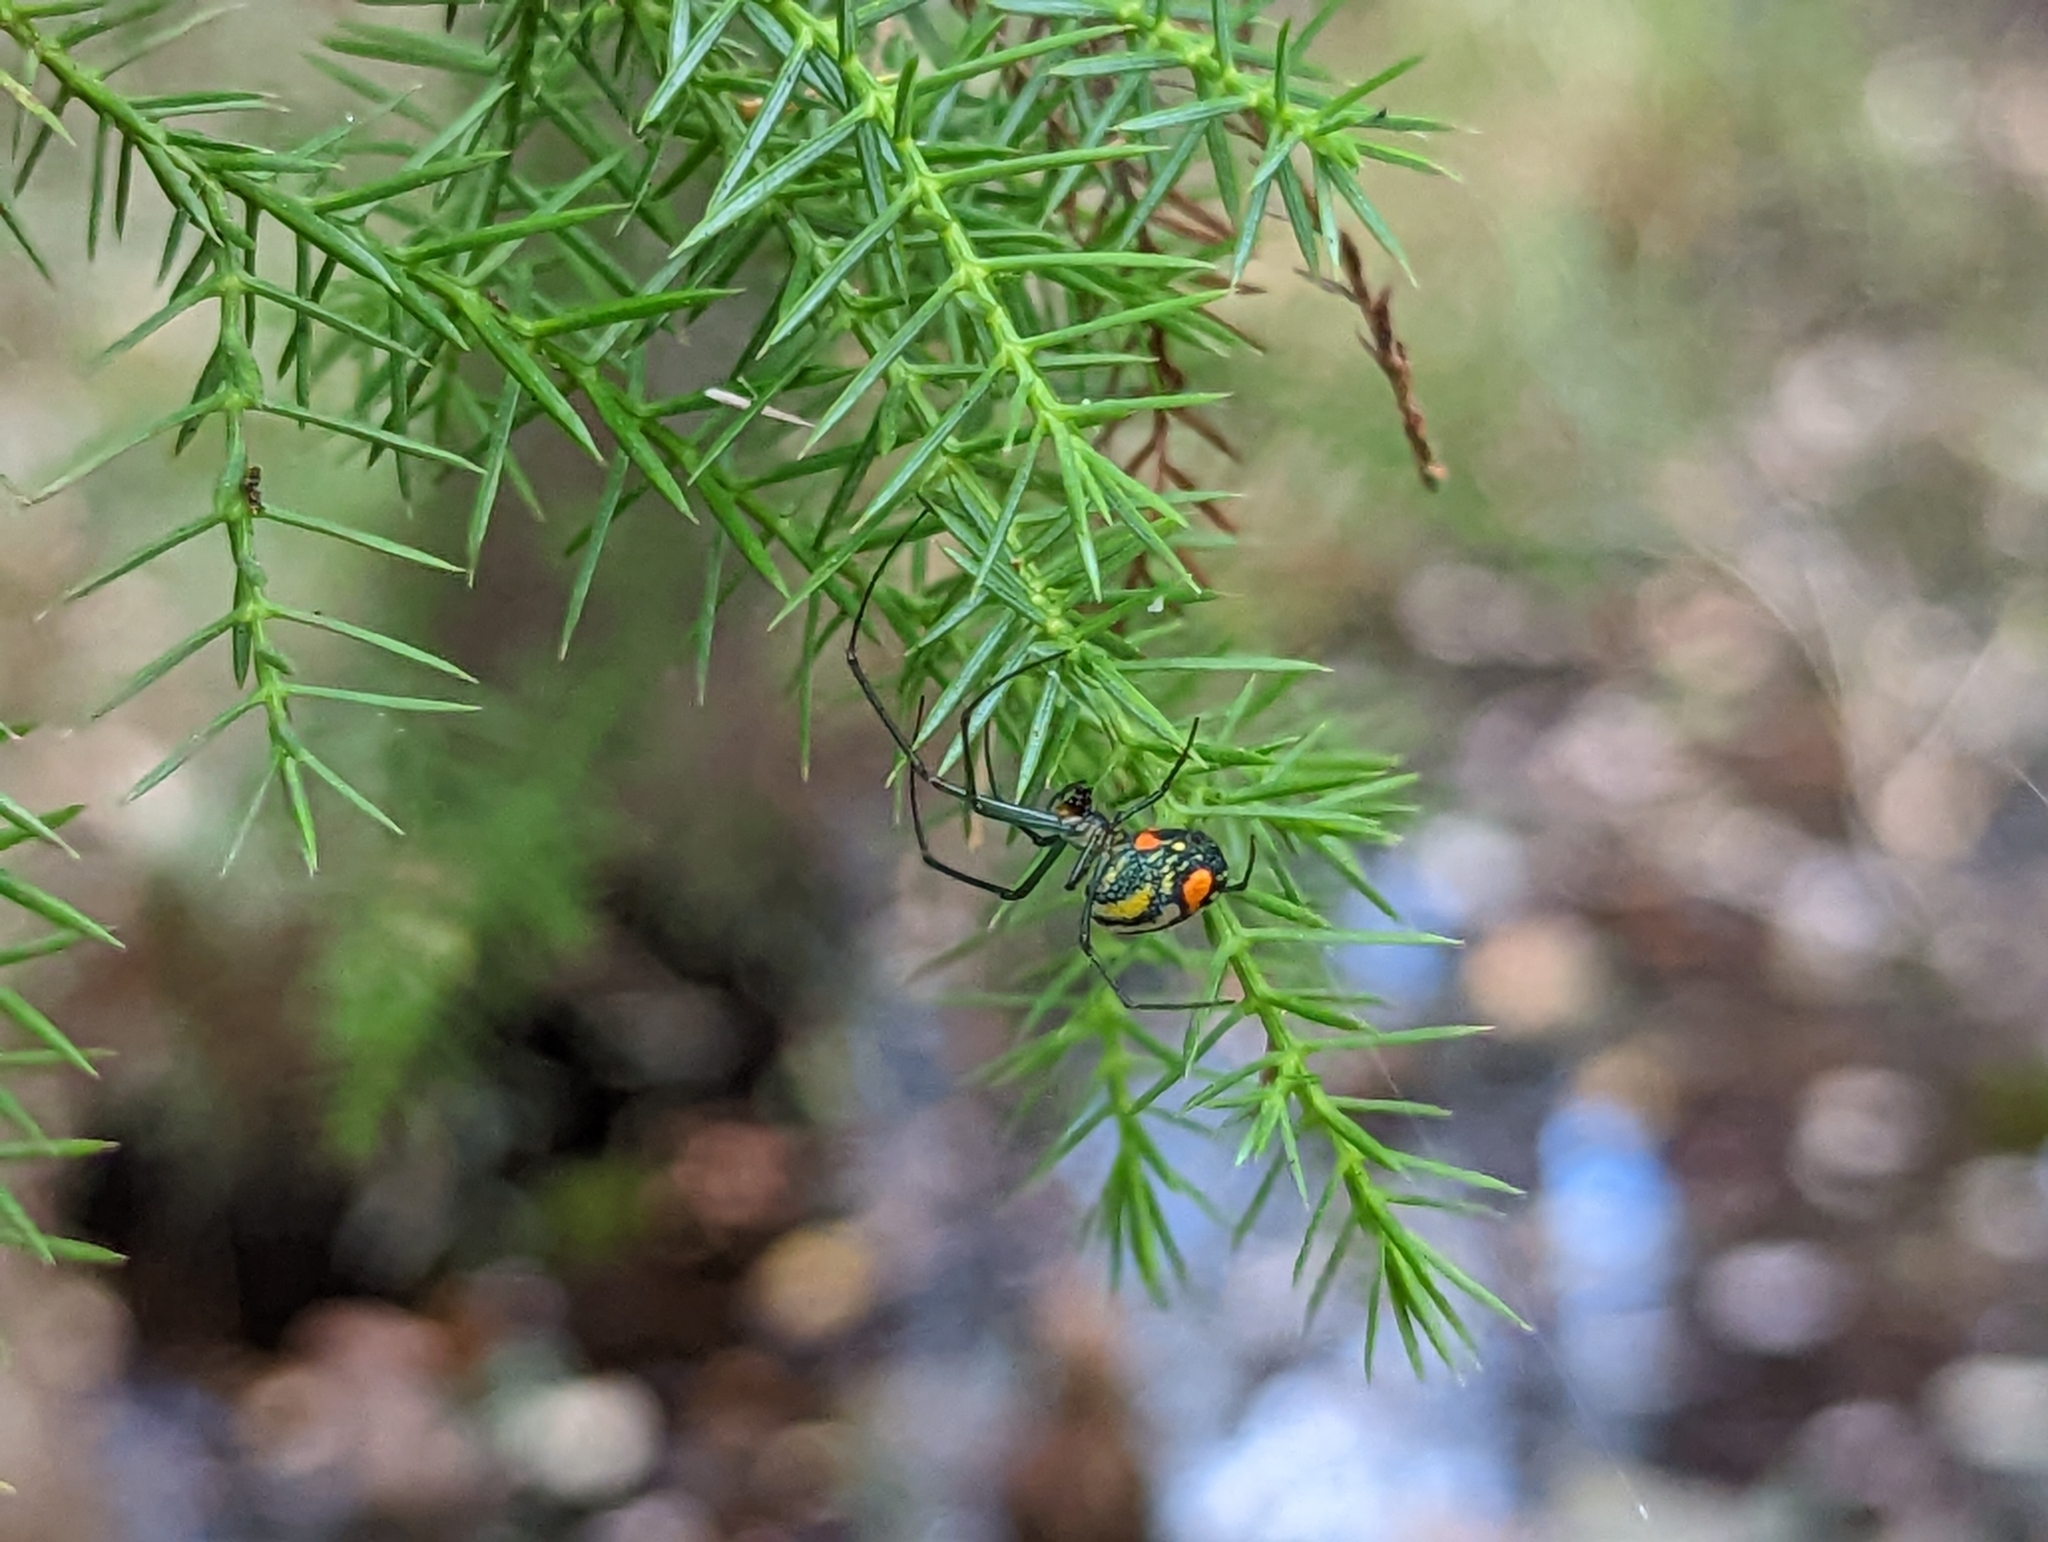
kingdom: Animalia
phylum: Arthropoda
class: Arachnida
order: Araneae
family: Tetragnathidae
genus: Leucauge
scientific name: Leucauge argyrobapta
